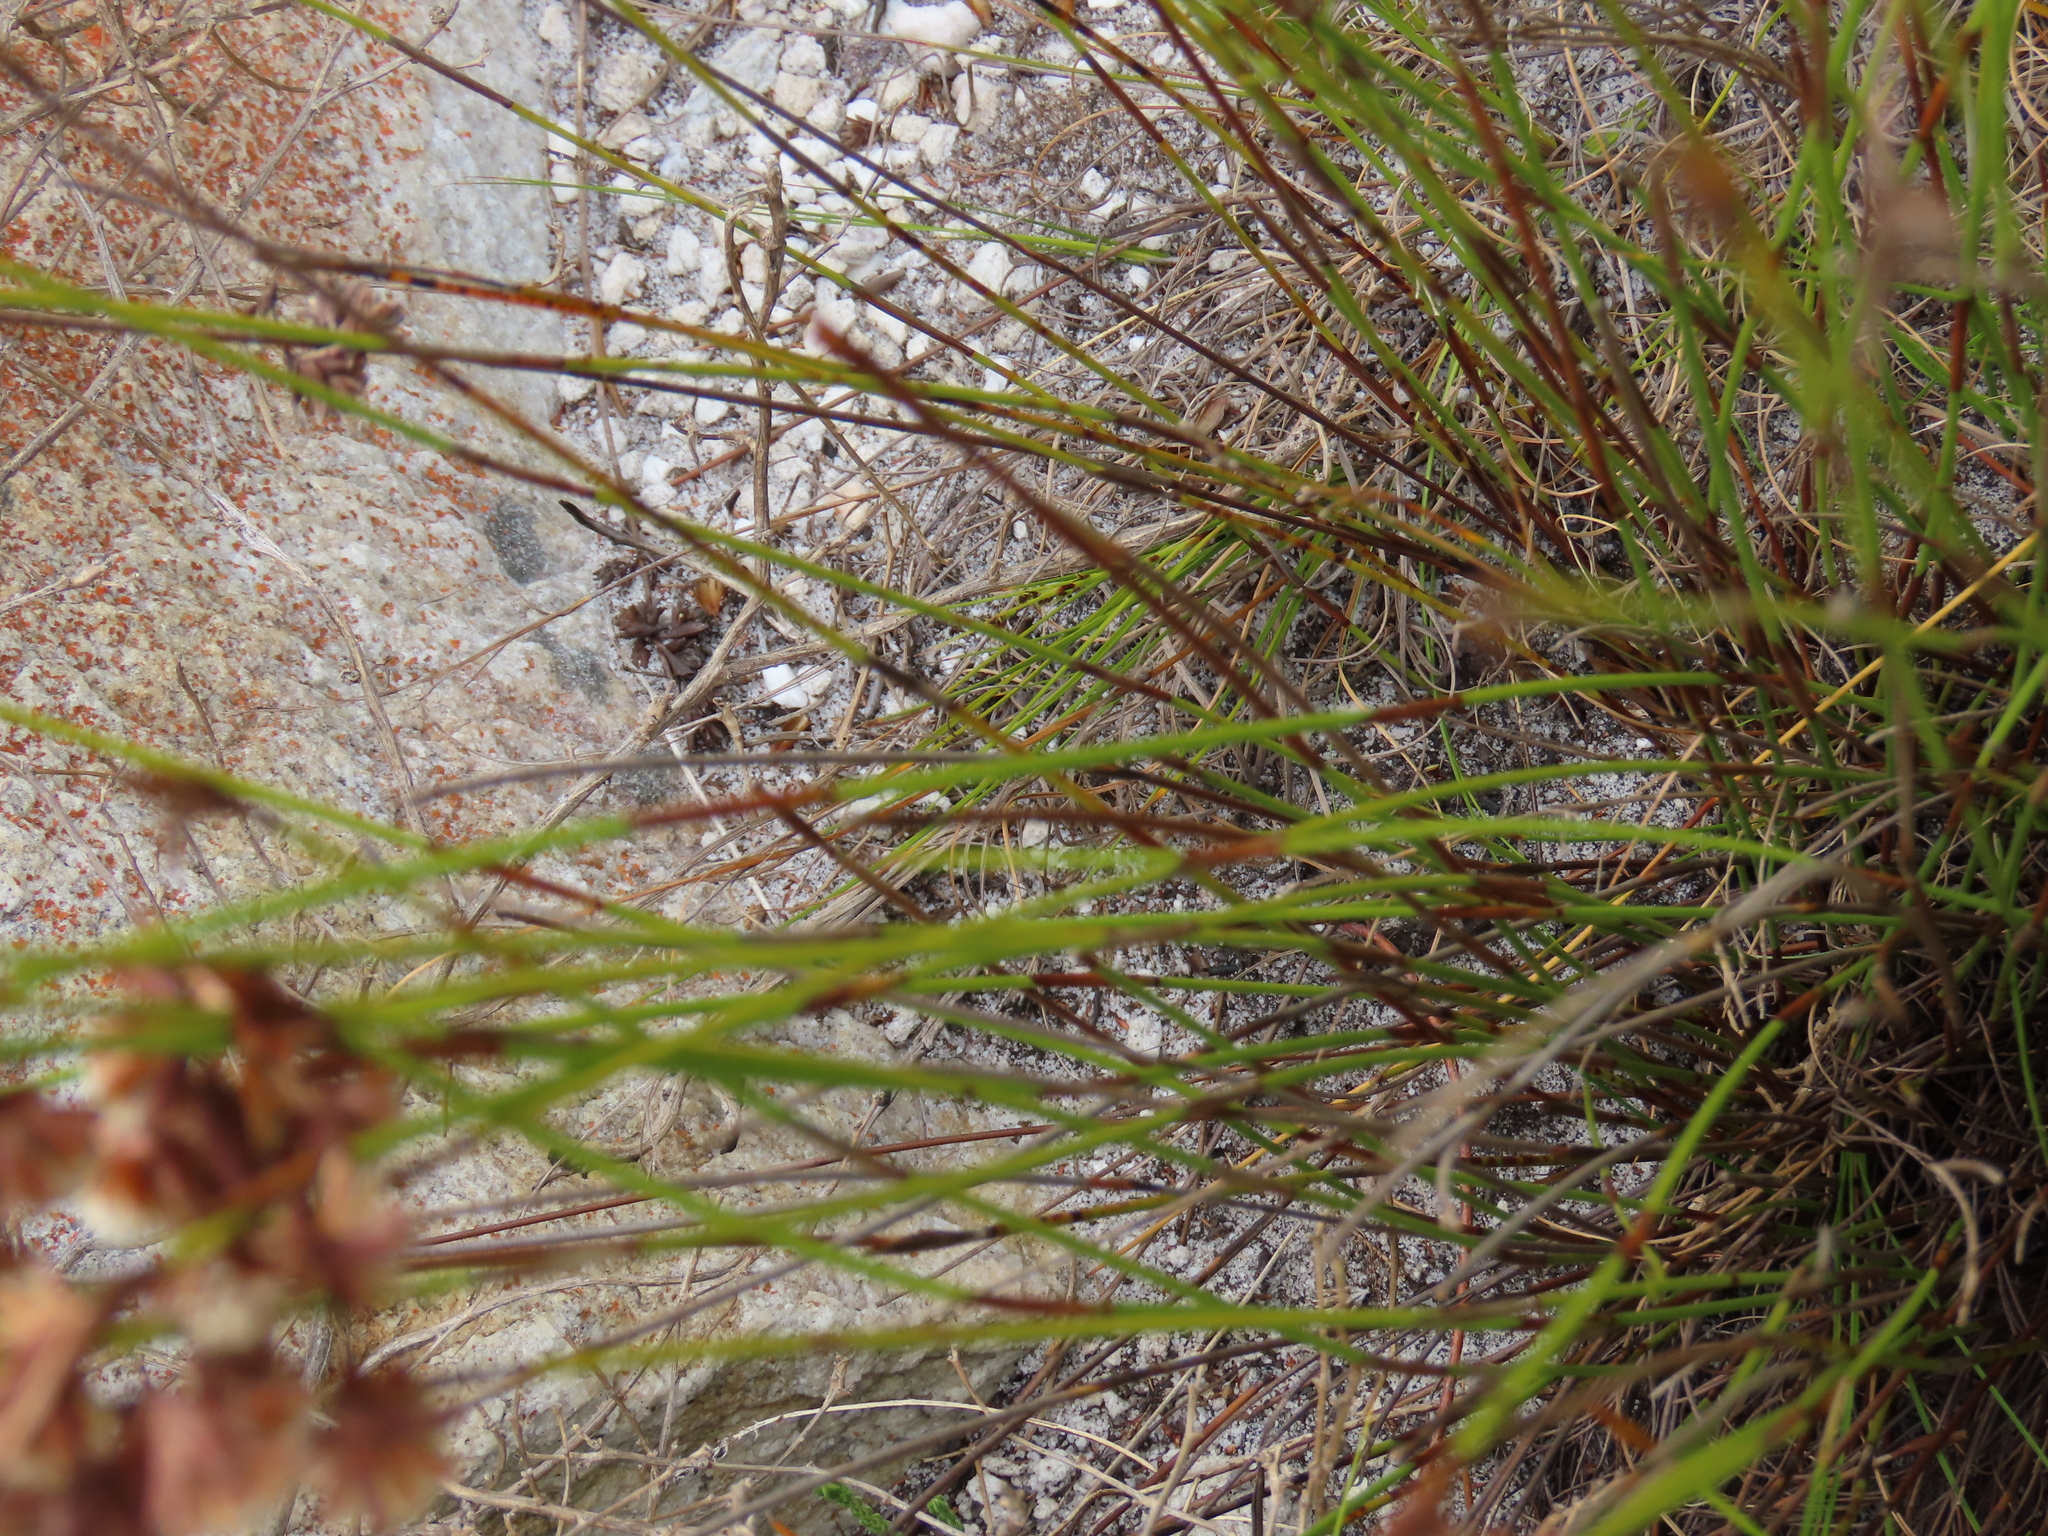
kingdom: Plantae
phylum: Tracheophyta
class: Liliopsida
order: Poales
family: Restionaceae
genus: Staberoha
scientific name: Staberoha cernua
